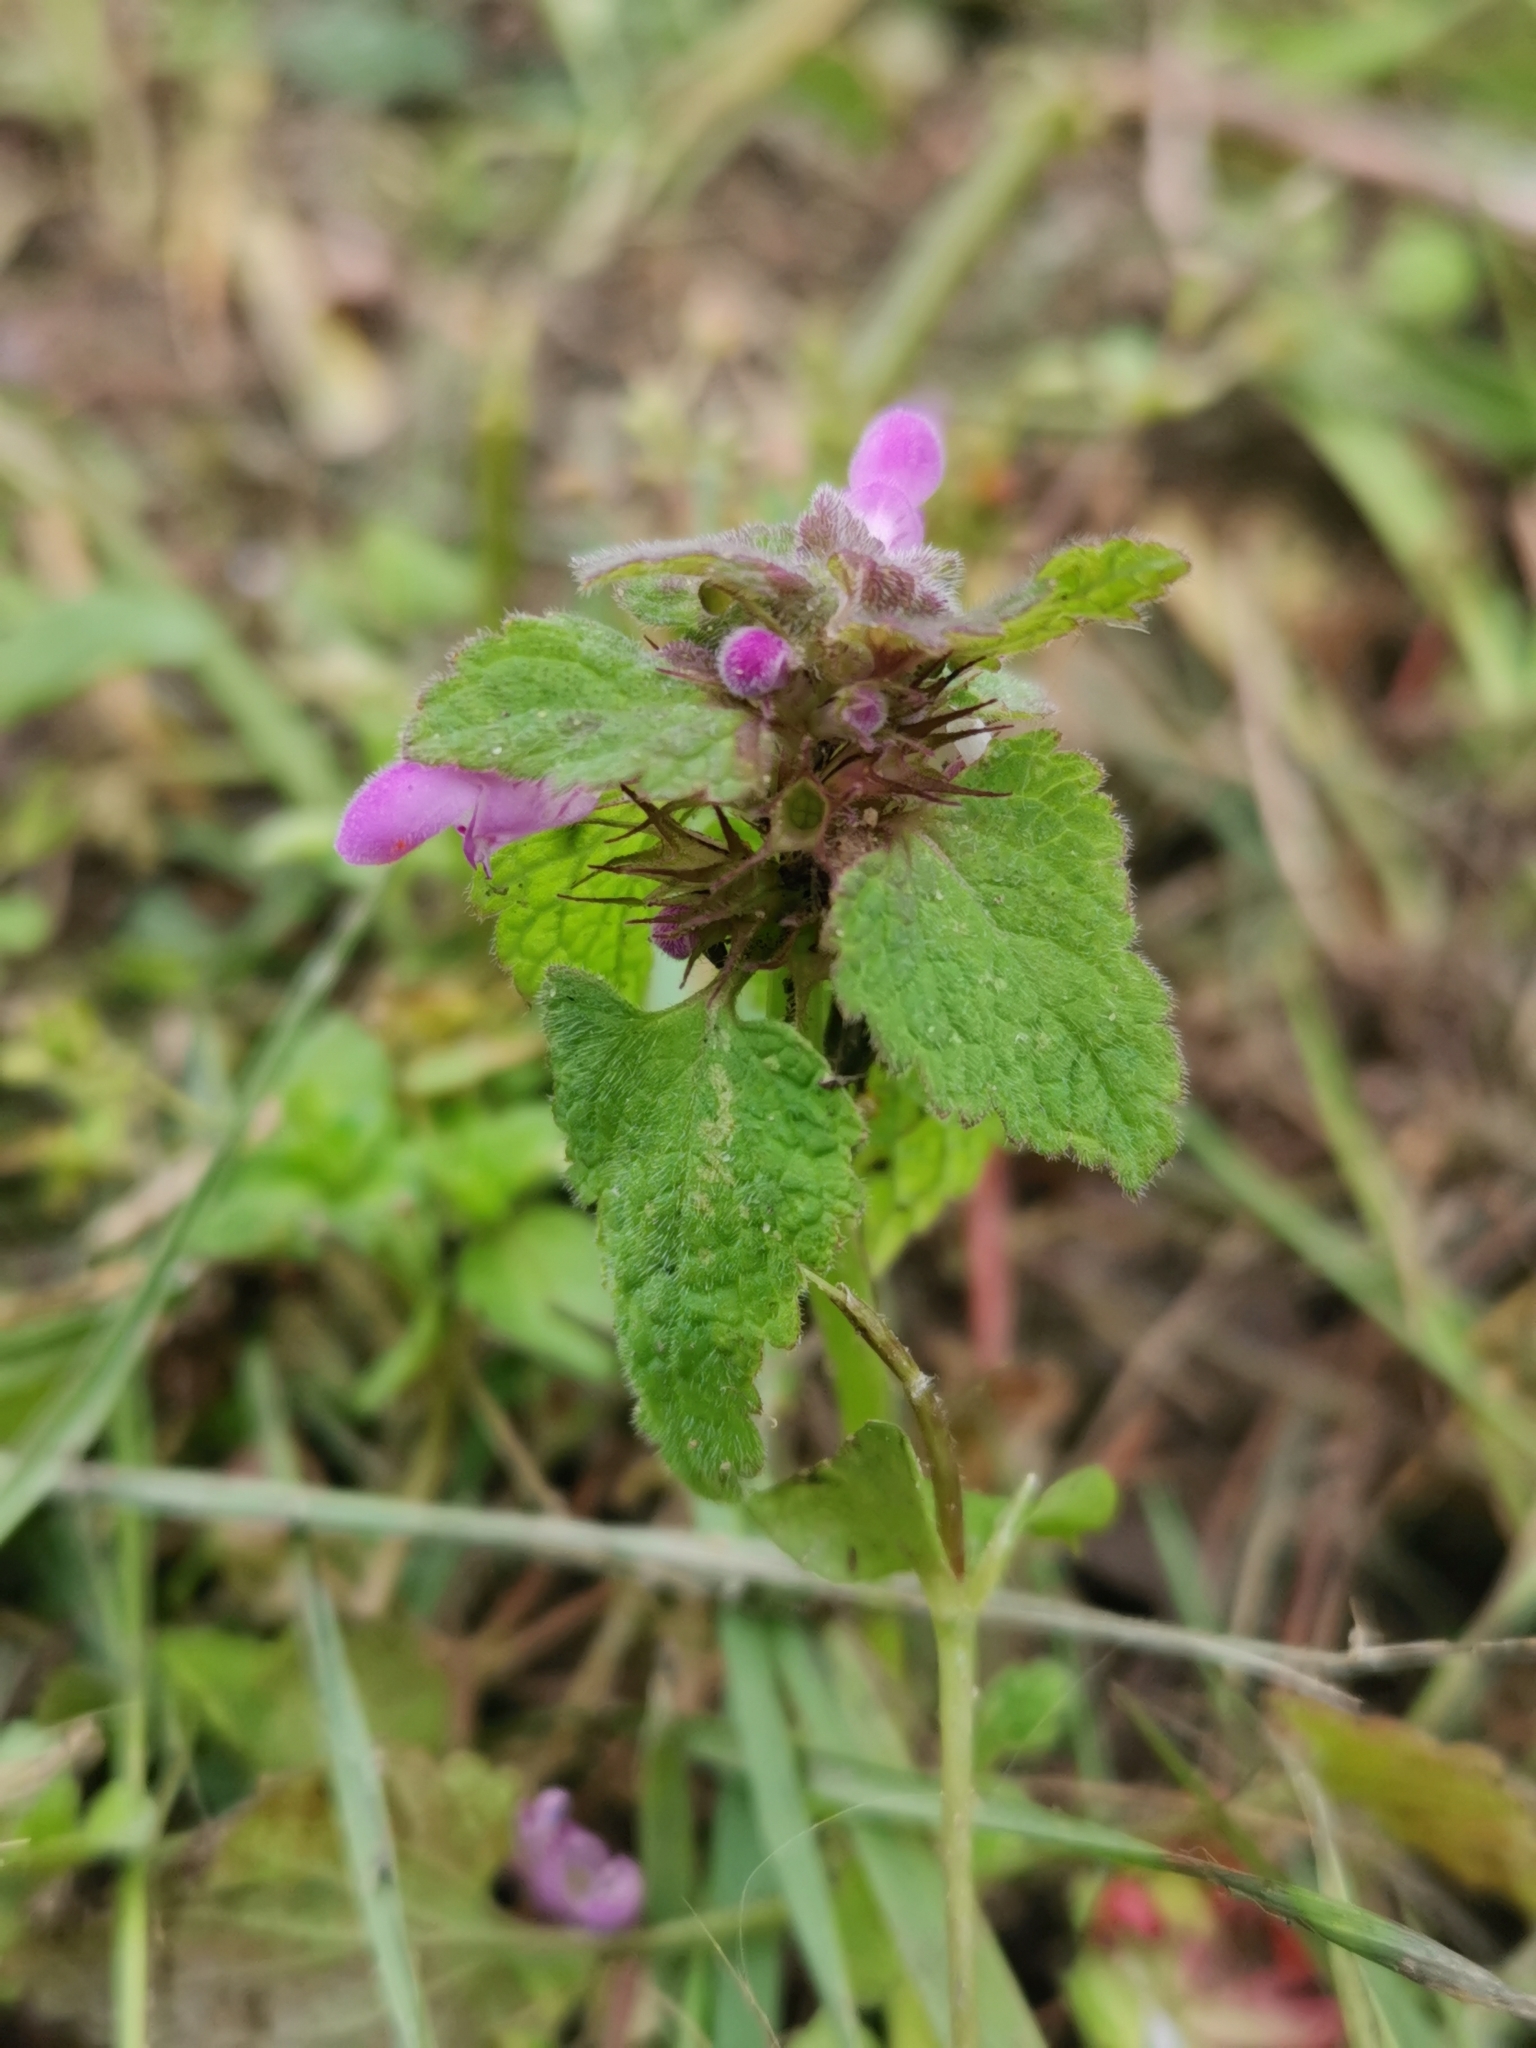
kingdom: Plantae
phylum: Tracheophyta
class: Magnoliopsida
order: Lamiales
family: Lamiaceae
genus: Lamium
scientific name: Lamium purpureum
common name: Red dead-nettle
